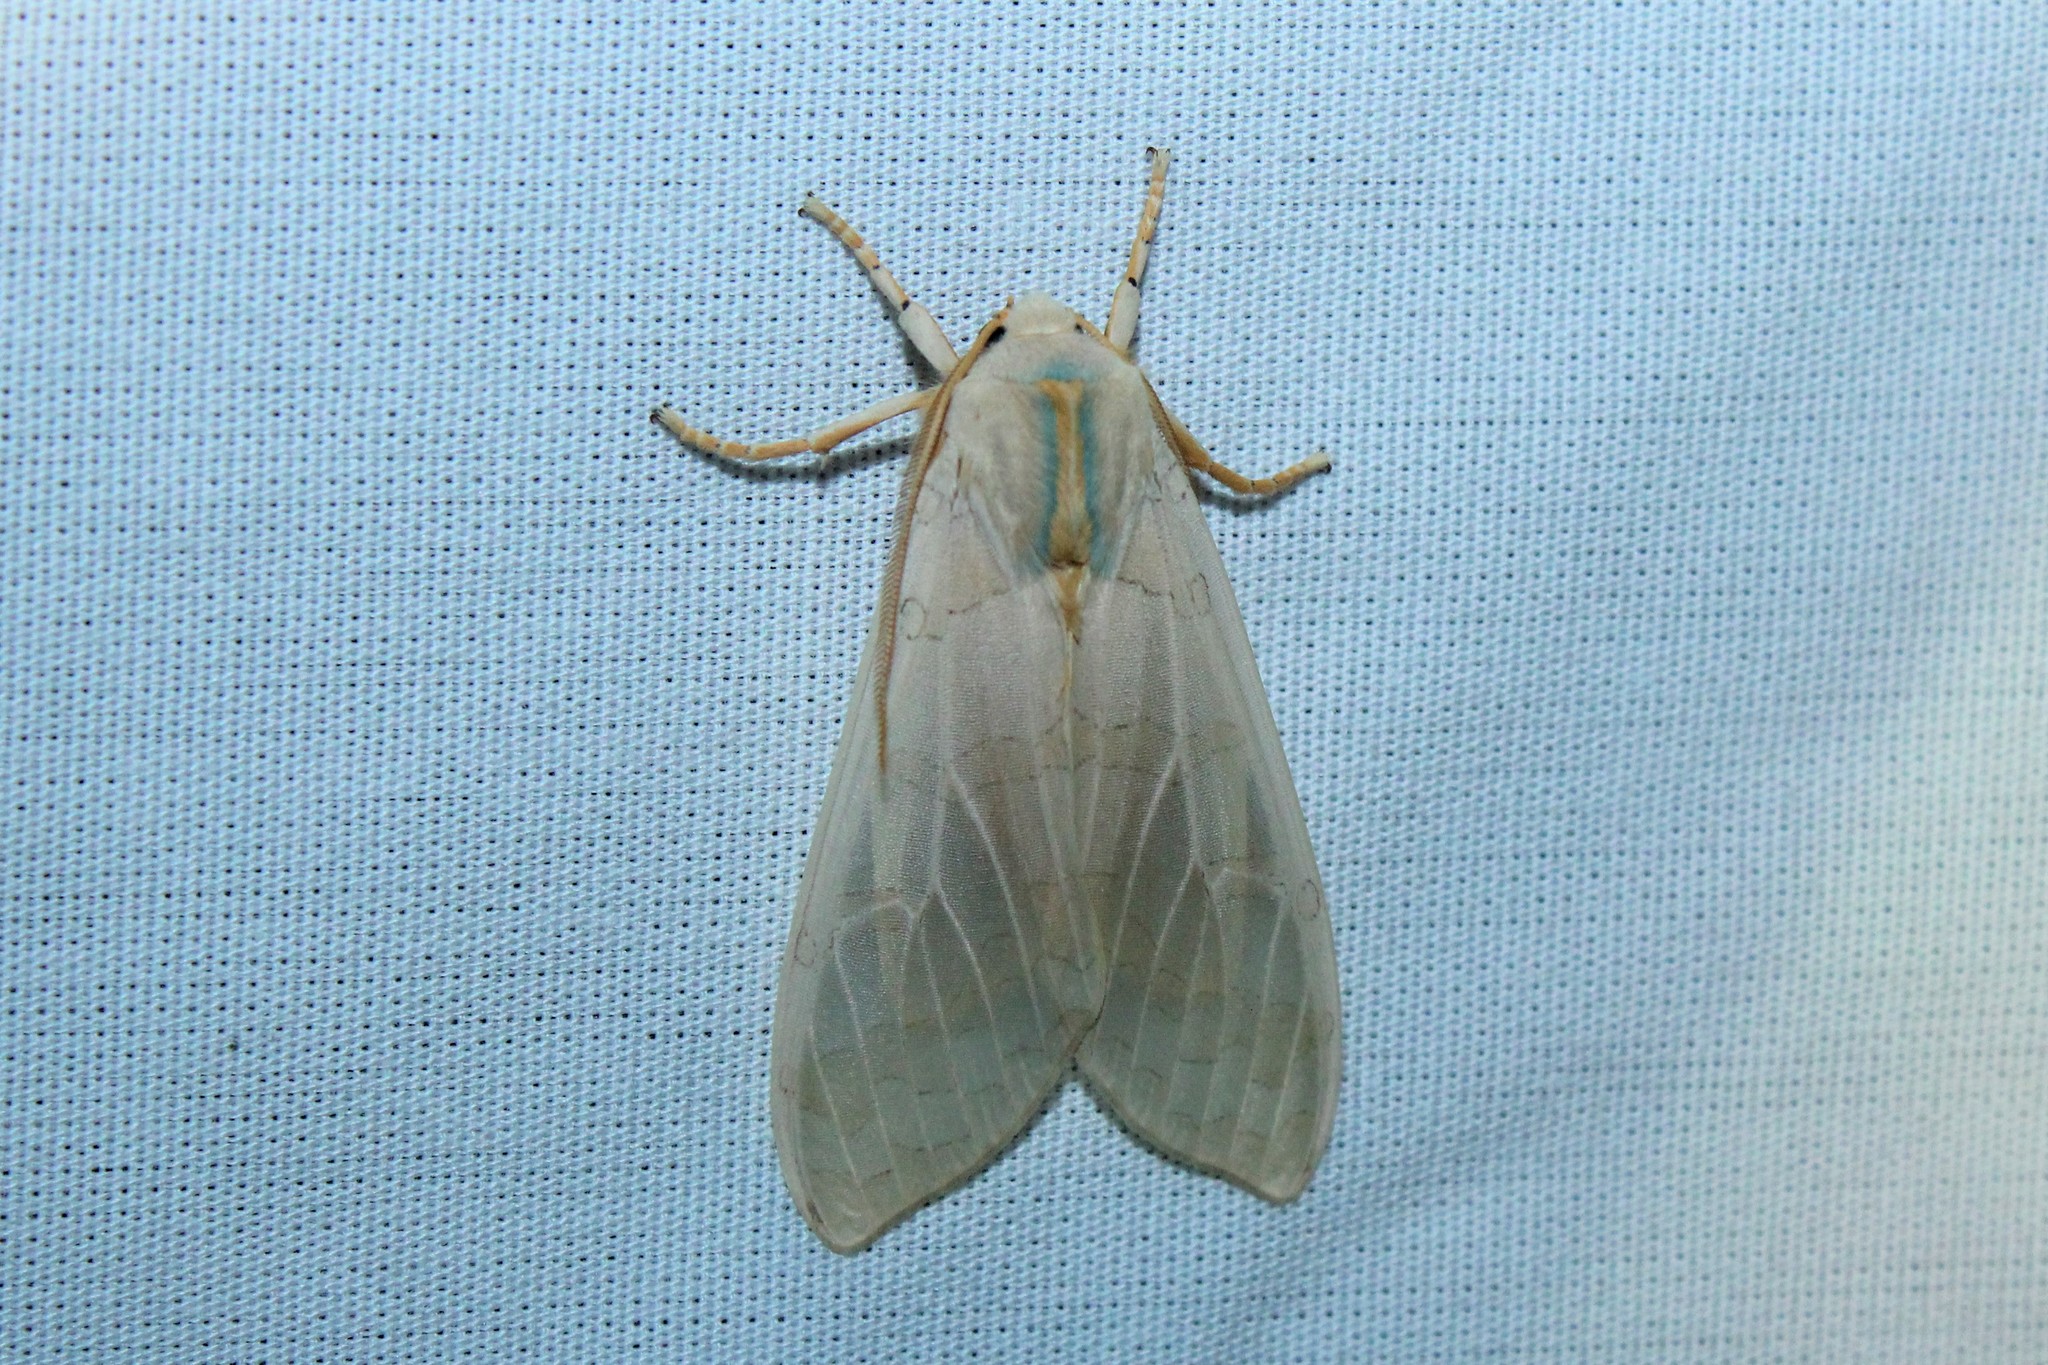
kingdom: Animalia
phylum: Arthropoda
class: Insecta
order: Lepidoptera
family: Erebidae
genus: Halysidota
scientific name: Halysidota tessellaris
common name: Banded tussock moth
